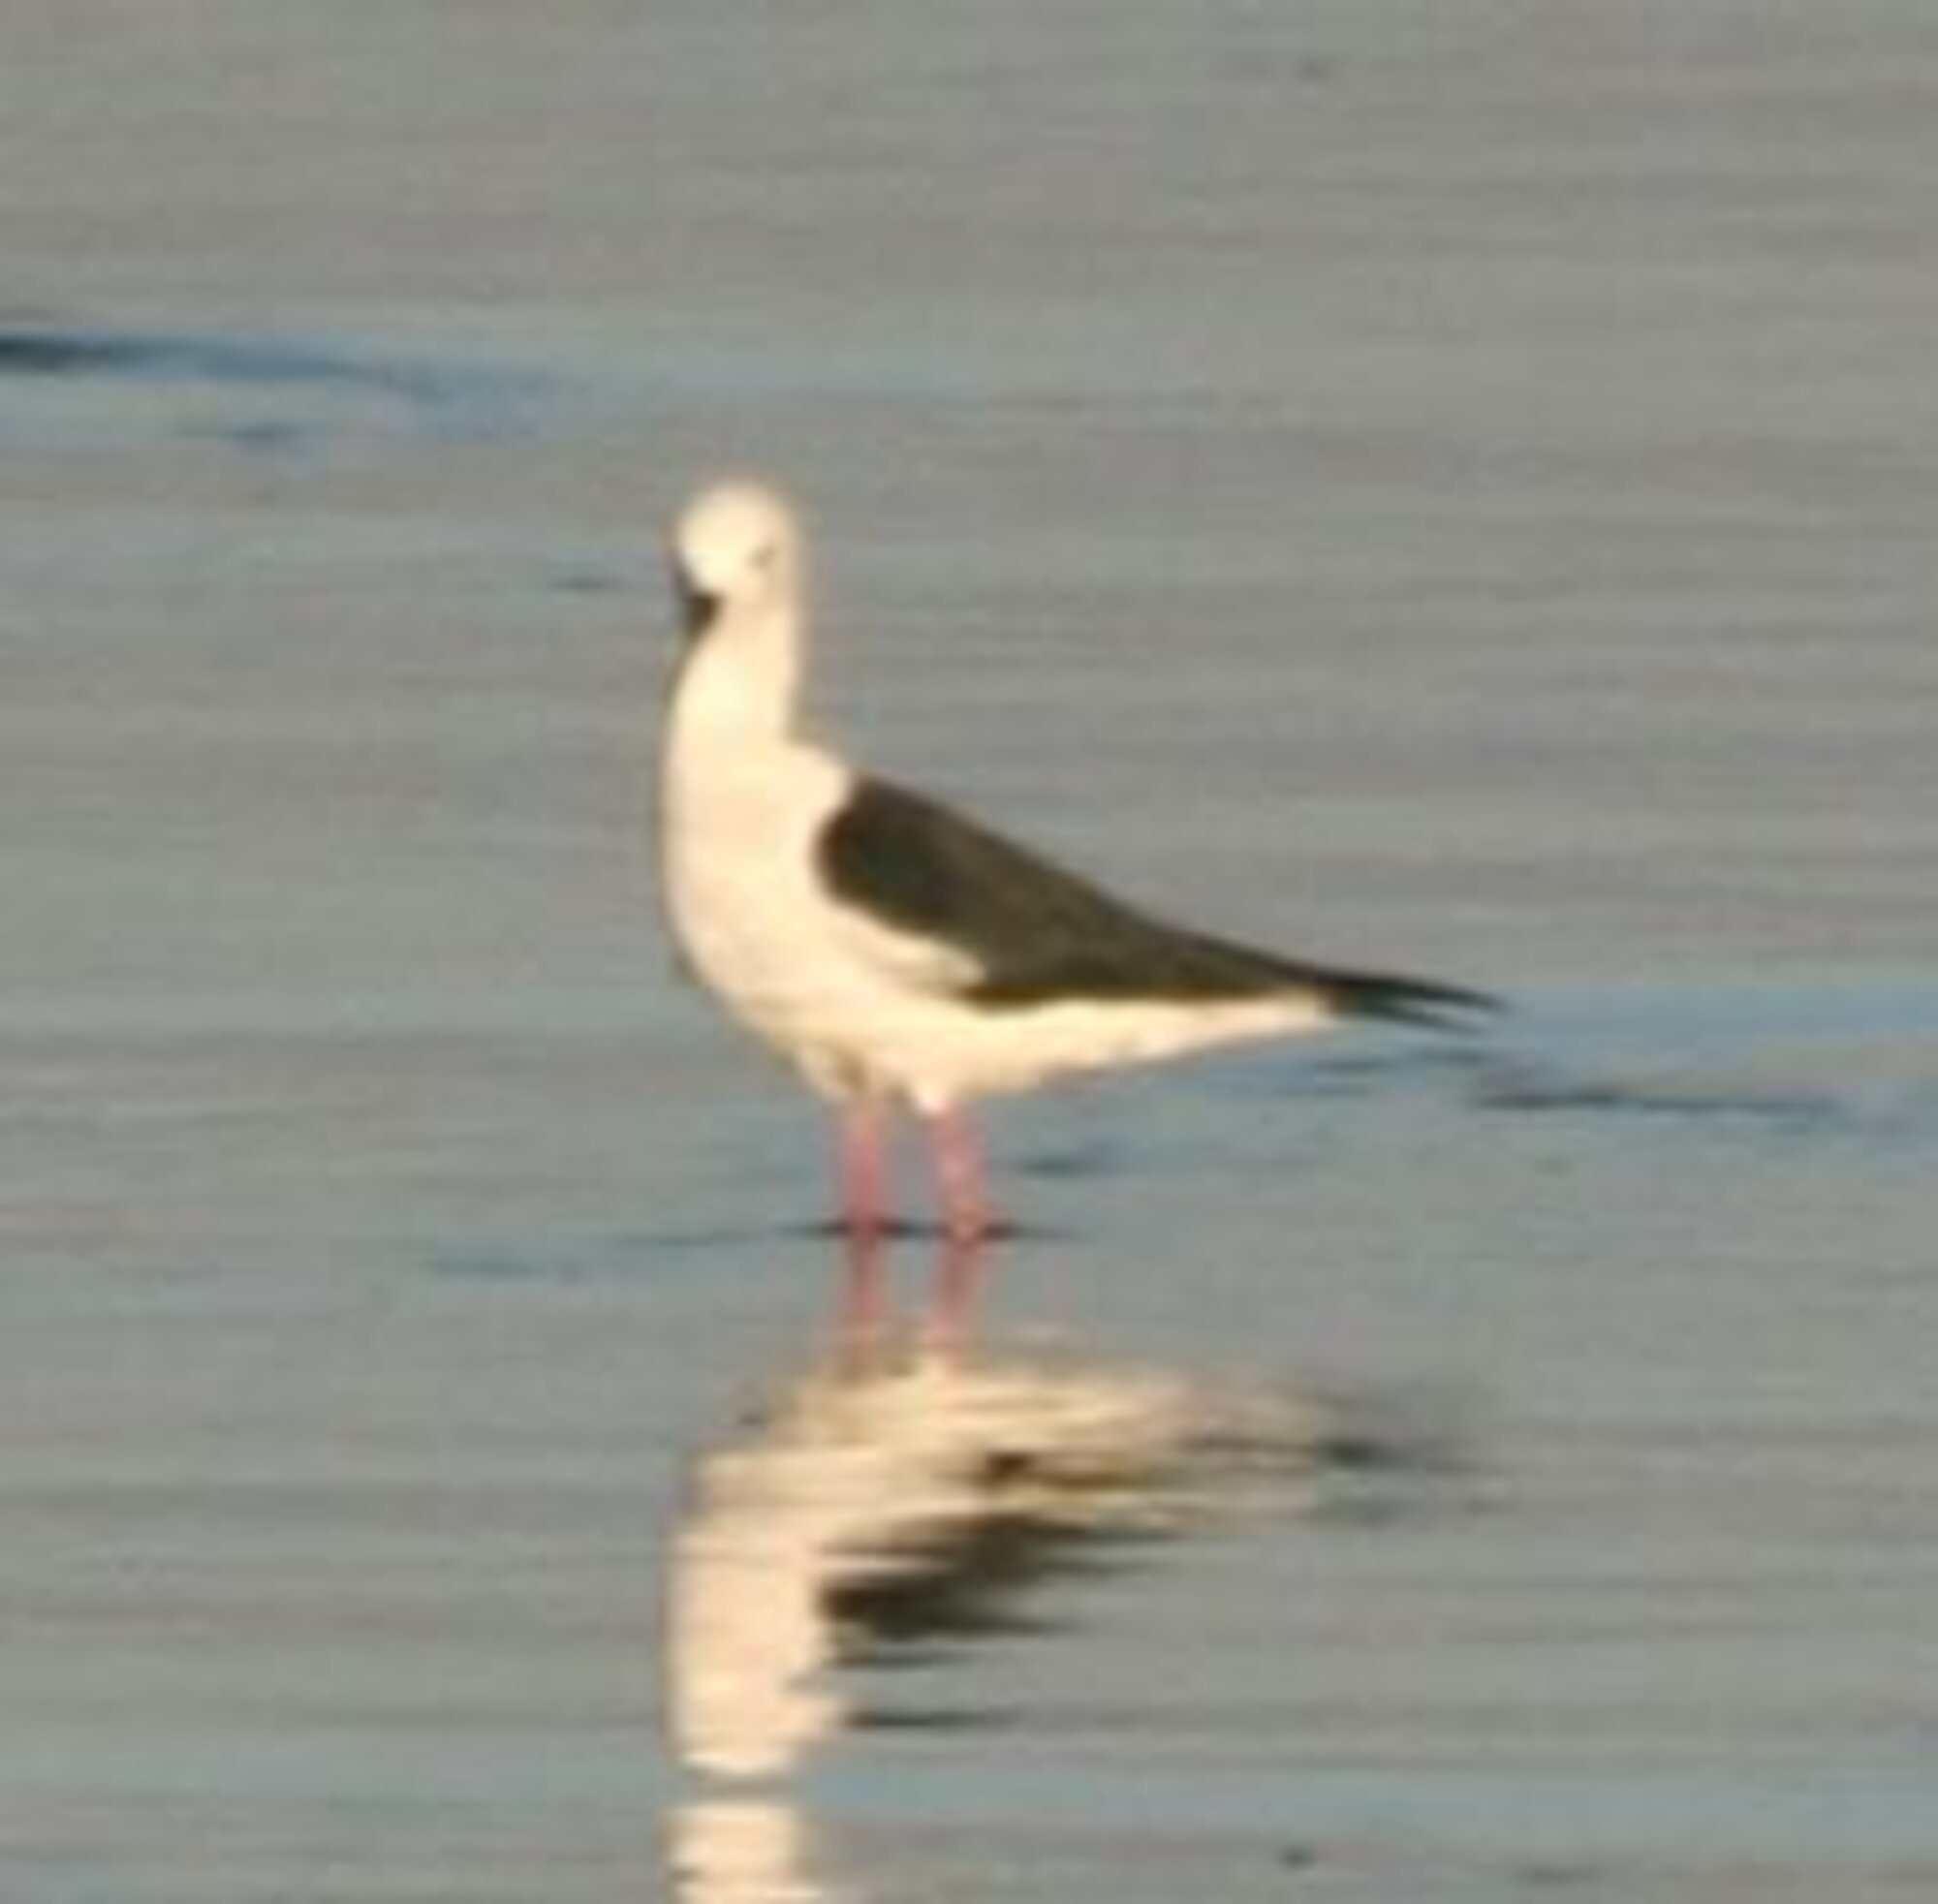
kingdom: Animalia
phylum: Chordata
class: Aves
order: Charadriiformes
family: Recurvirostridae
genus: Himantopus
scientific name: Himantopus himantopus
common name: Black-winged stilt
